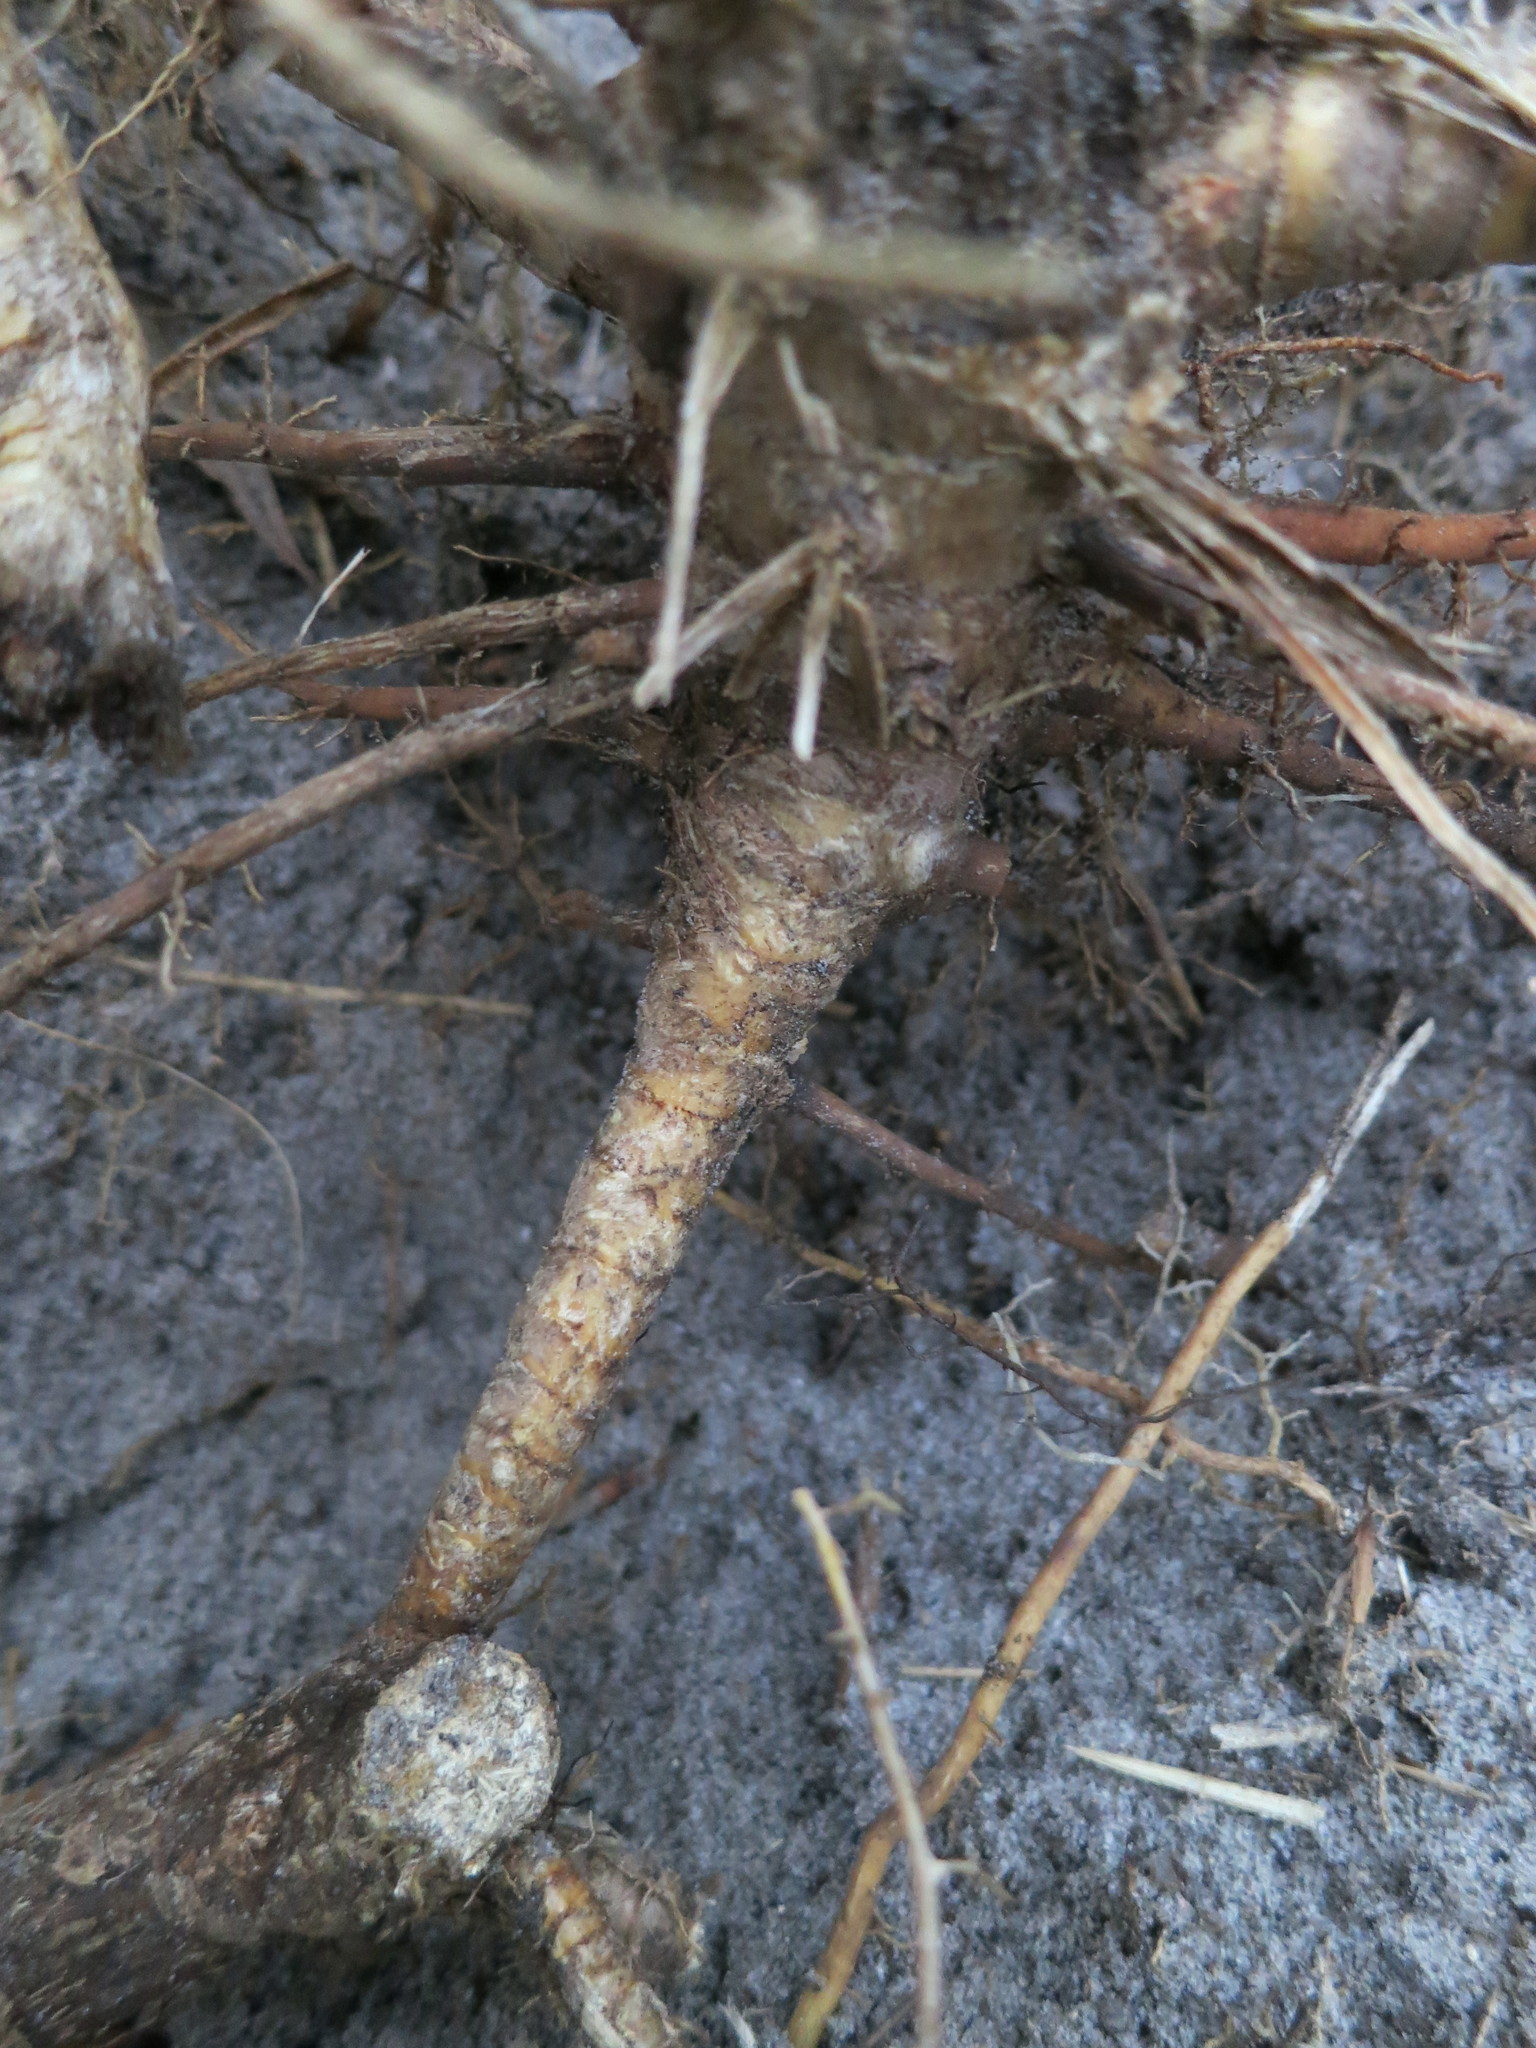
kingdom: Plantae
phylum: Tracheophyta
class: Liliopsida
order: Poales
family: Poaceae
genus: Oldeania
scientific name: Oldeania itremoensis
